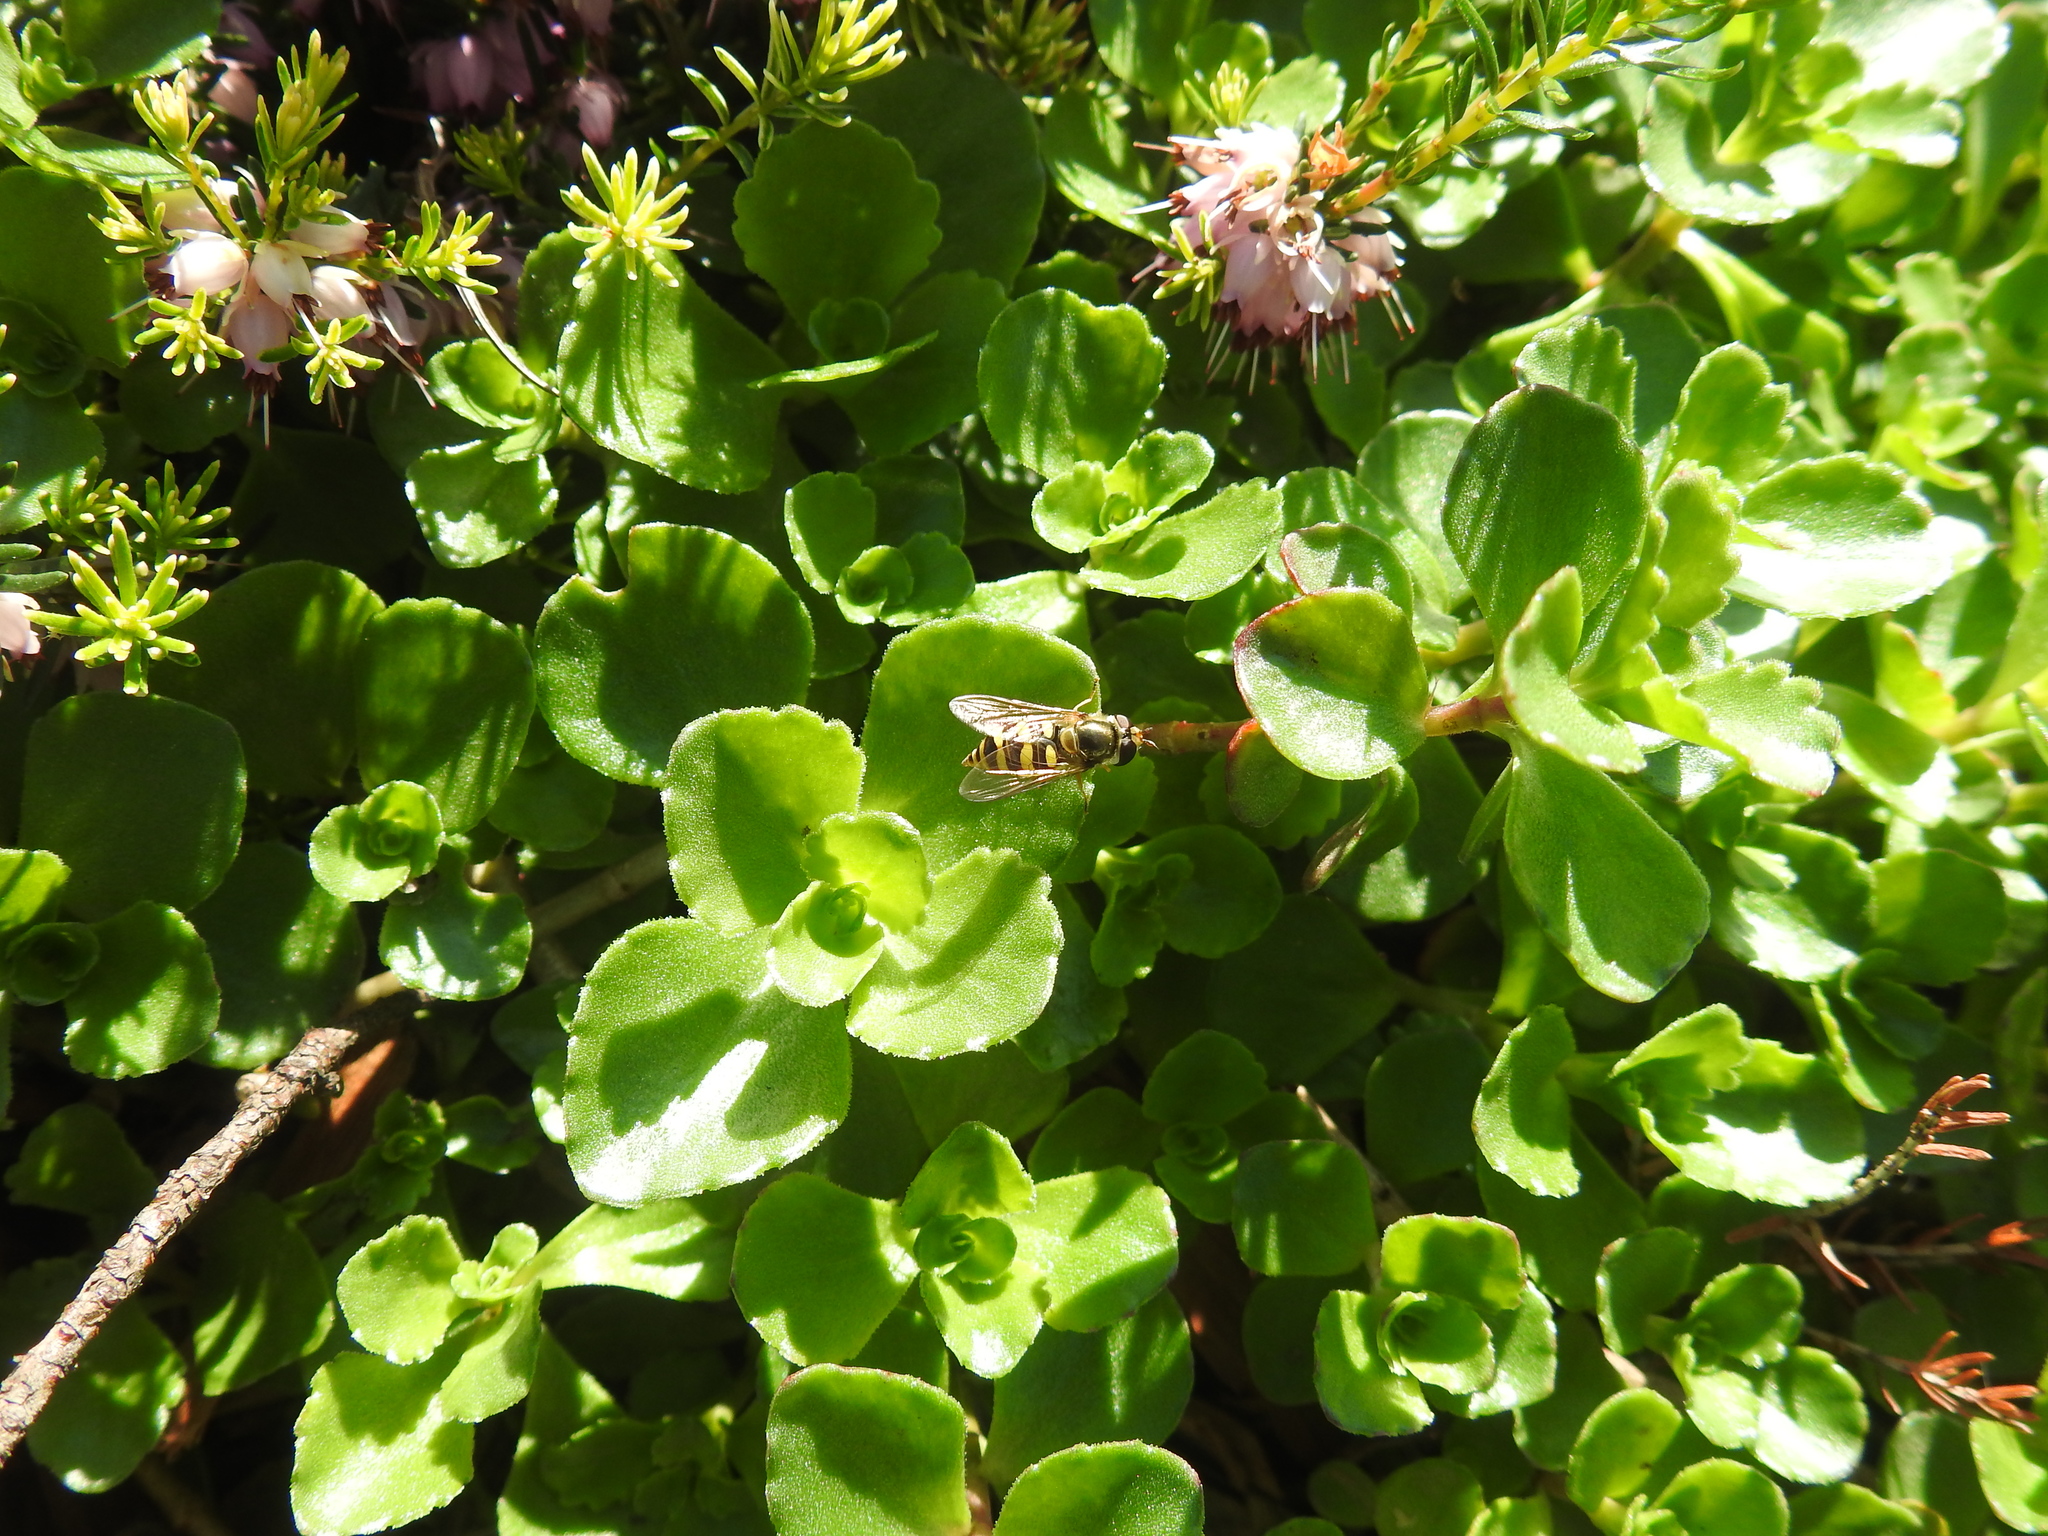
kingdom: Animalia
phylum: Arthropoda
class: Insecta
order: Diptera
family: Syrphidae
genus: Eupeodes
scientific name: Eupeodes fumipennis
